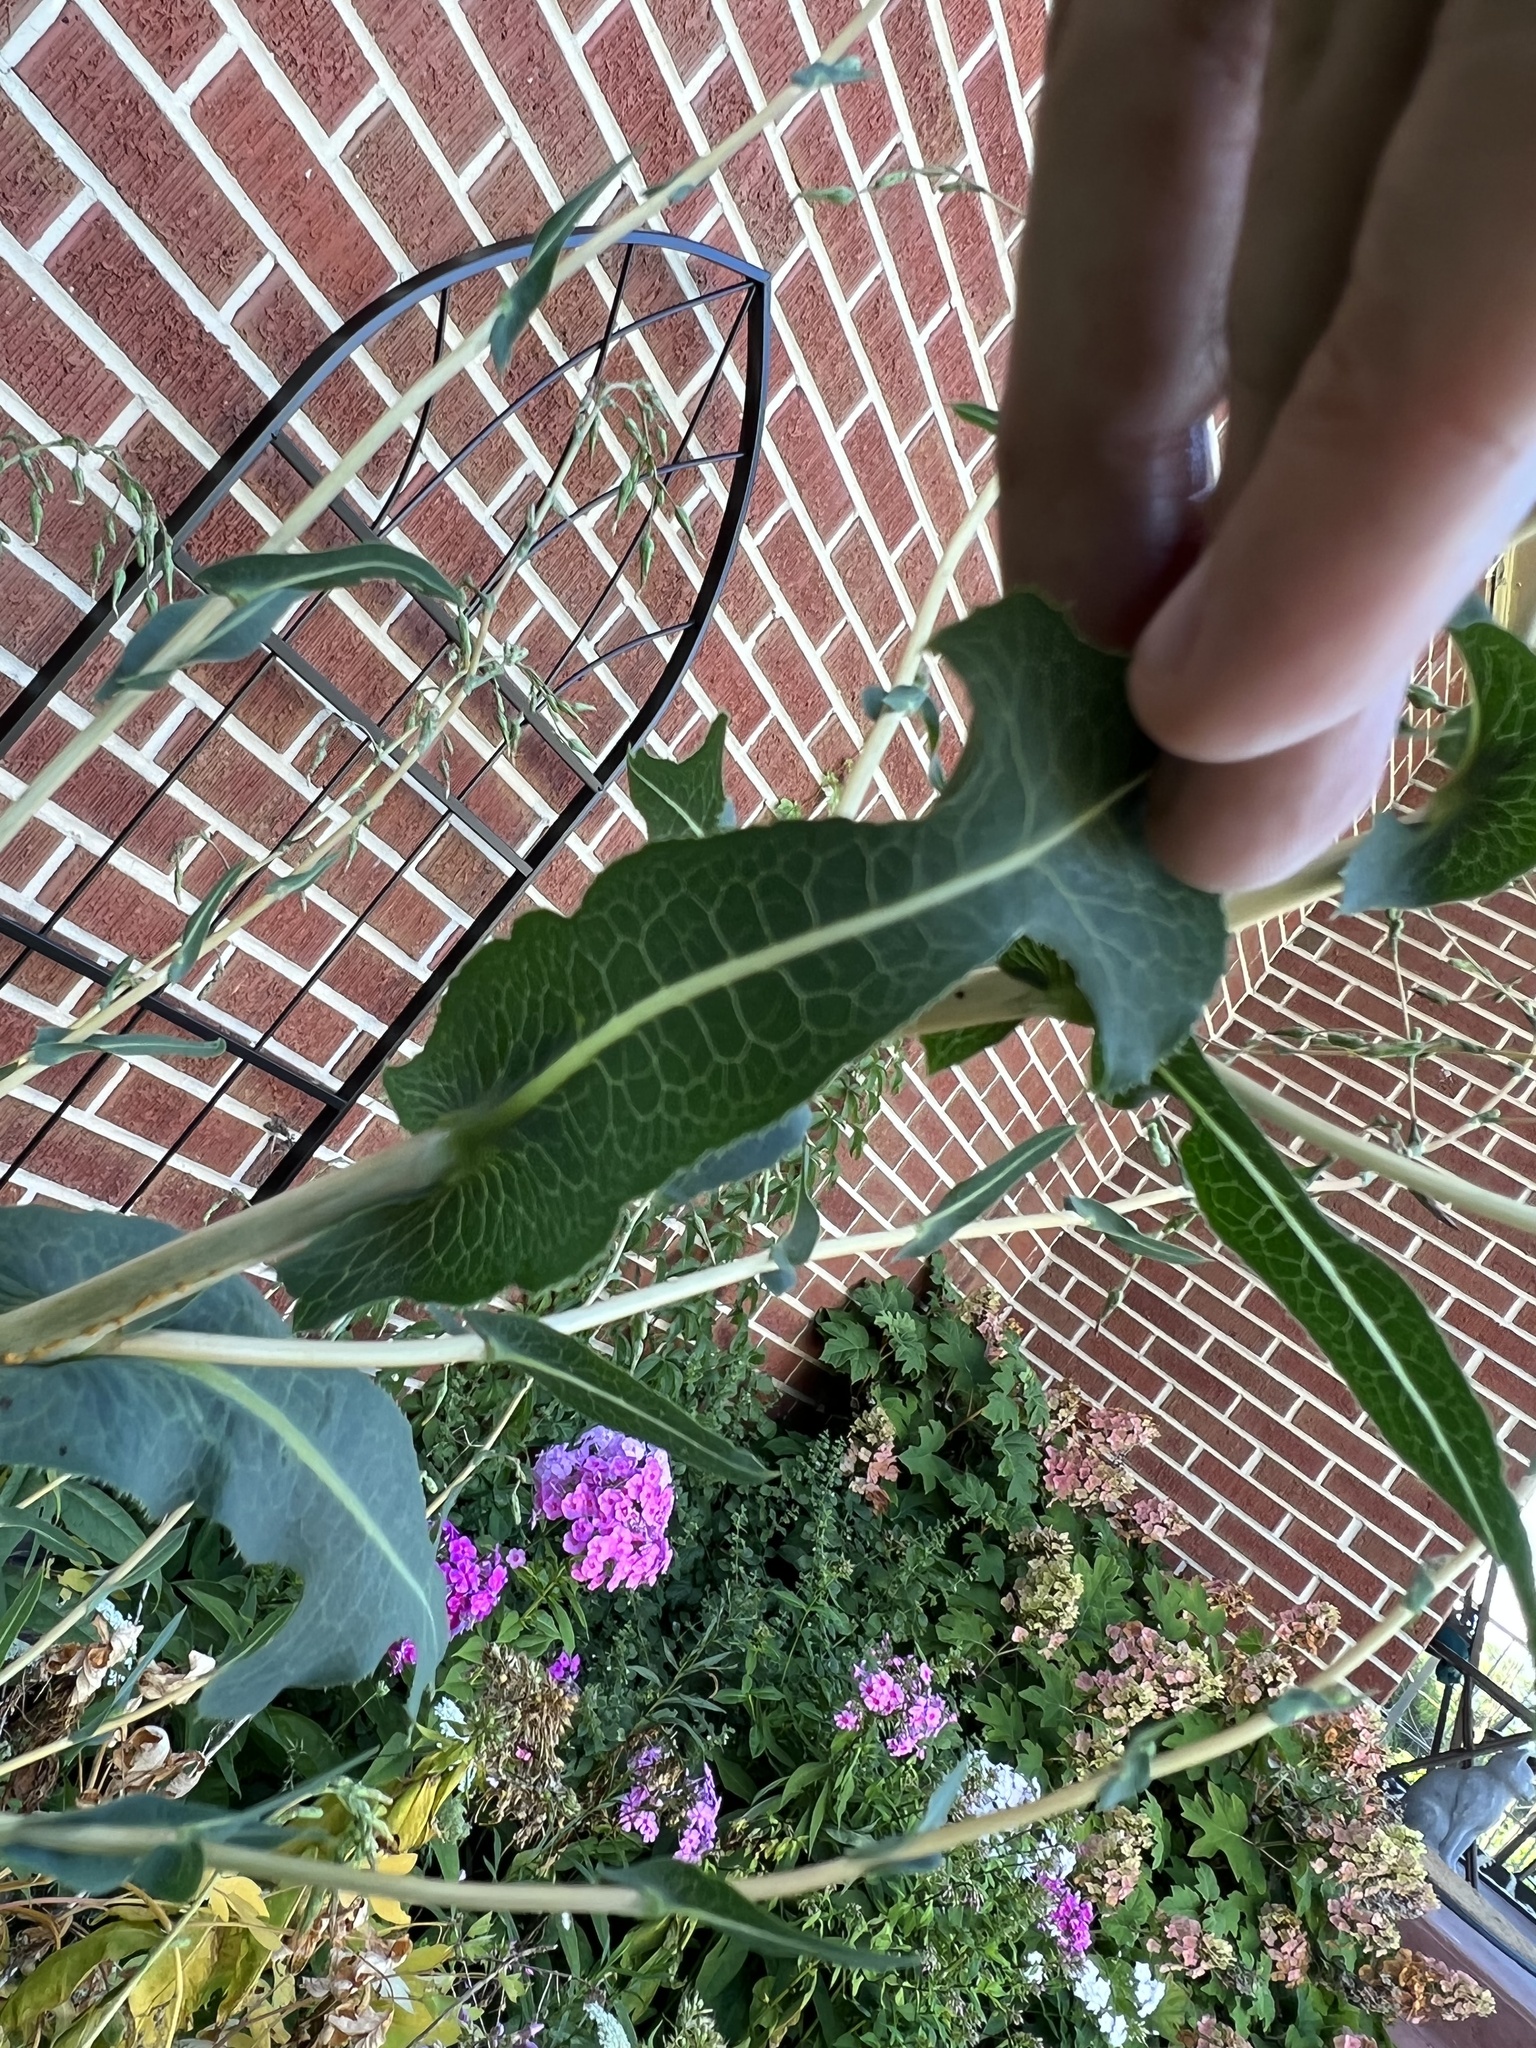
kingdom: Plantae
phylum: Tracheophyta
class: Magnoliopsida
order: Asterales
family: Asteraceae
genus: Lactuca
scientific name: Lactuca serriola
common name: Prickly lettuce
